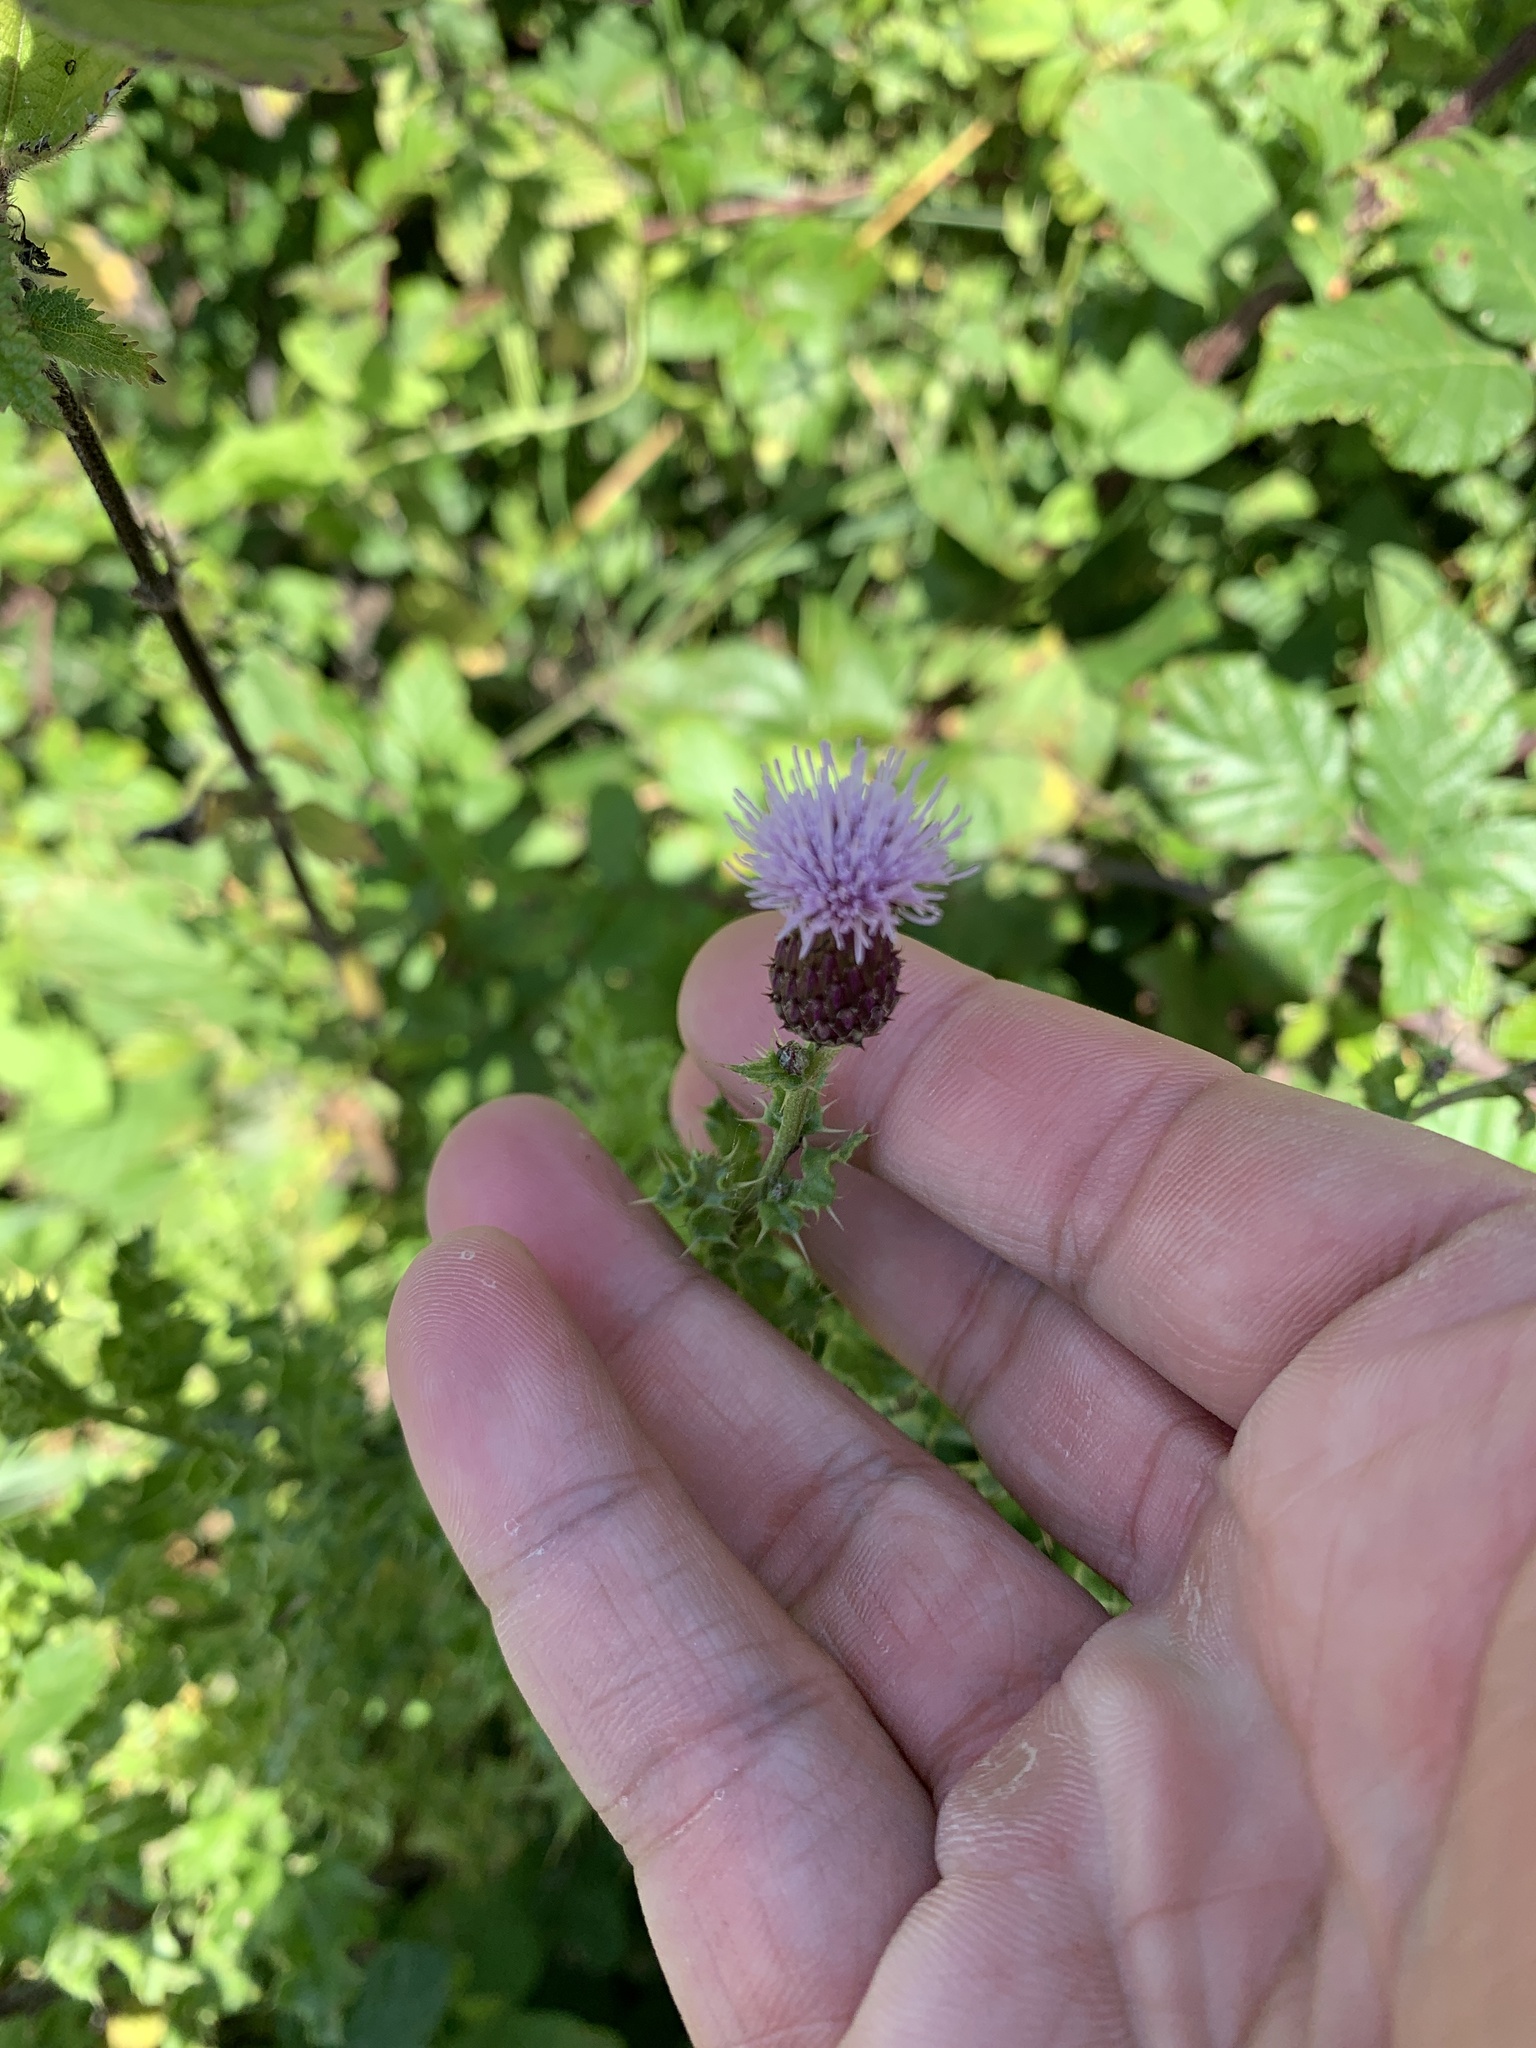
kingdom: Plantae
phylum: Tracheophyta
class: Magnoliopsida
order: Asterales
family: Asteraceae
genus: Cirsium
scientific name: Cirsium arvense
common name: Creeping thistle
